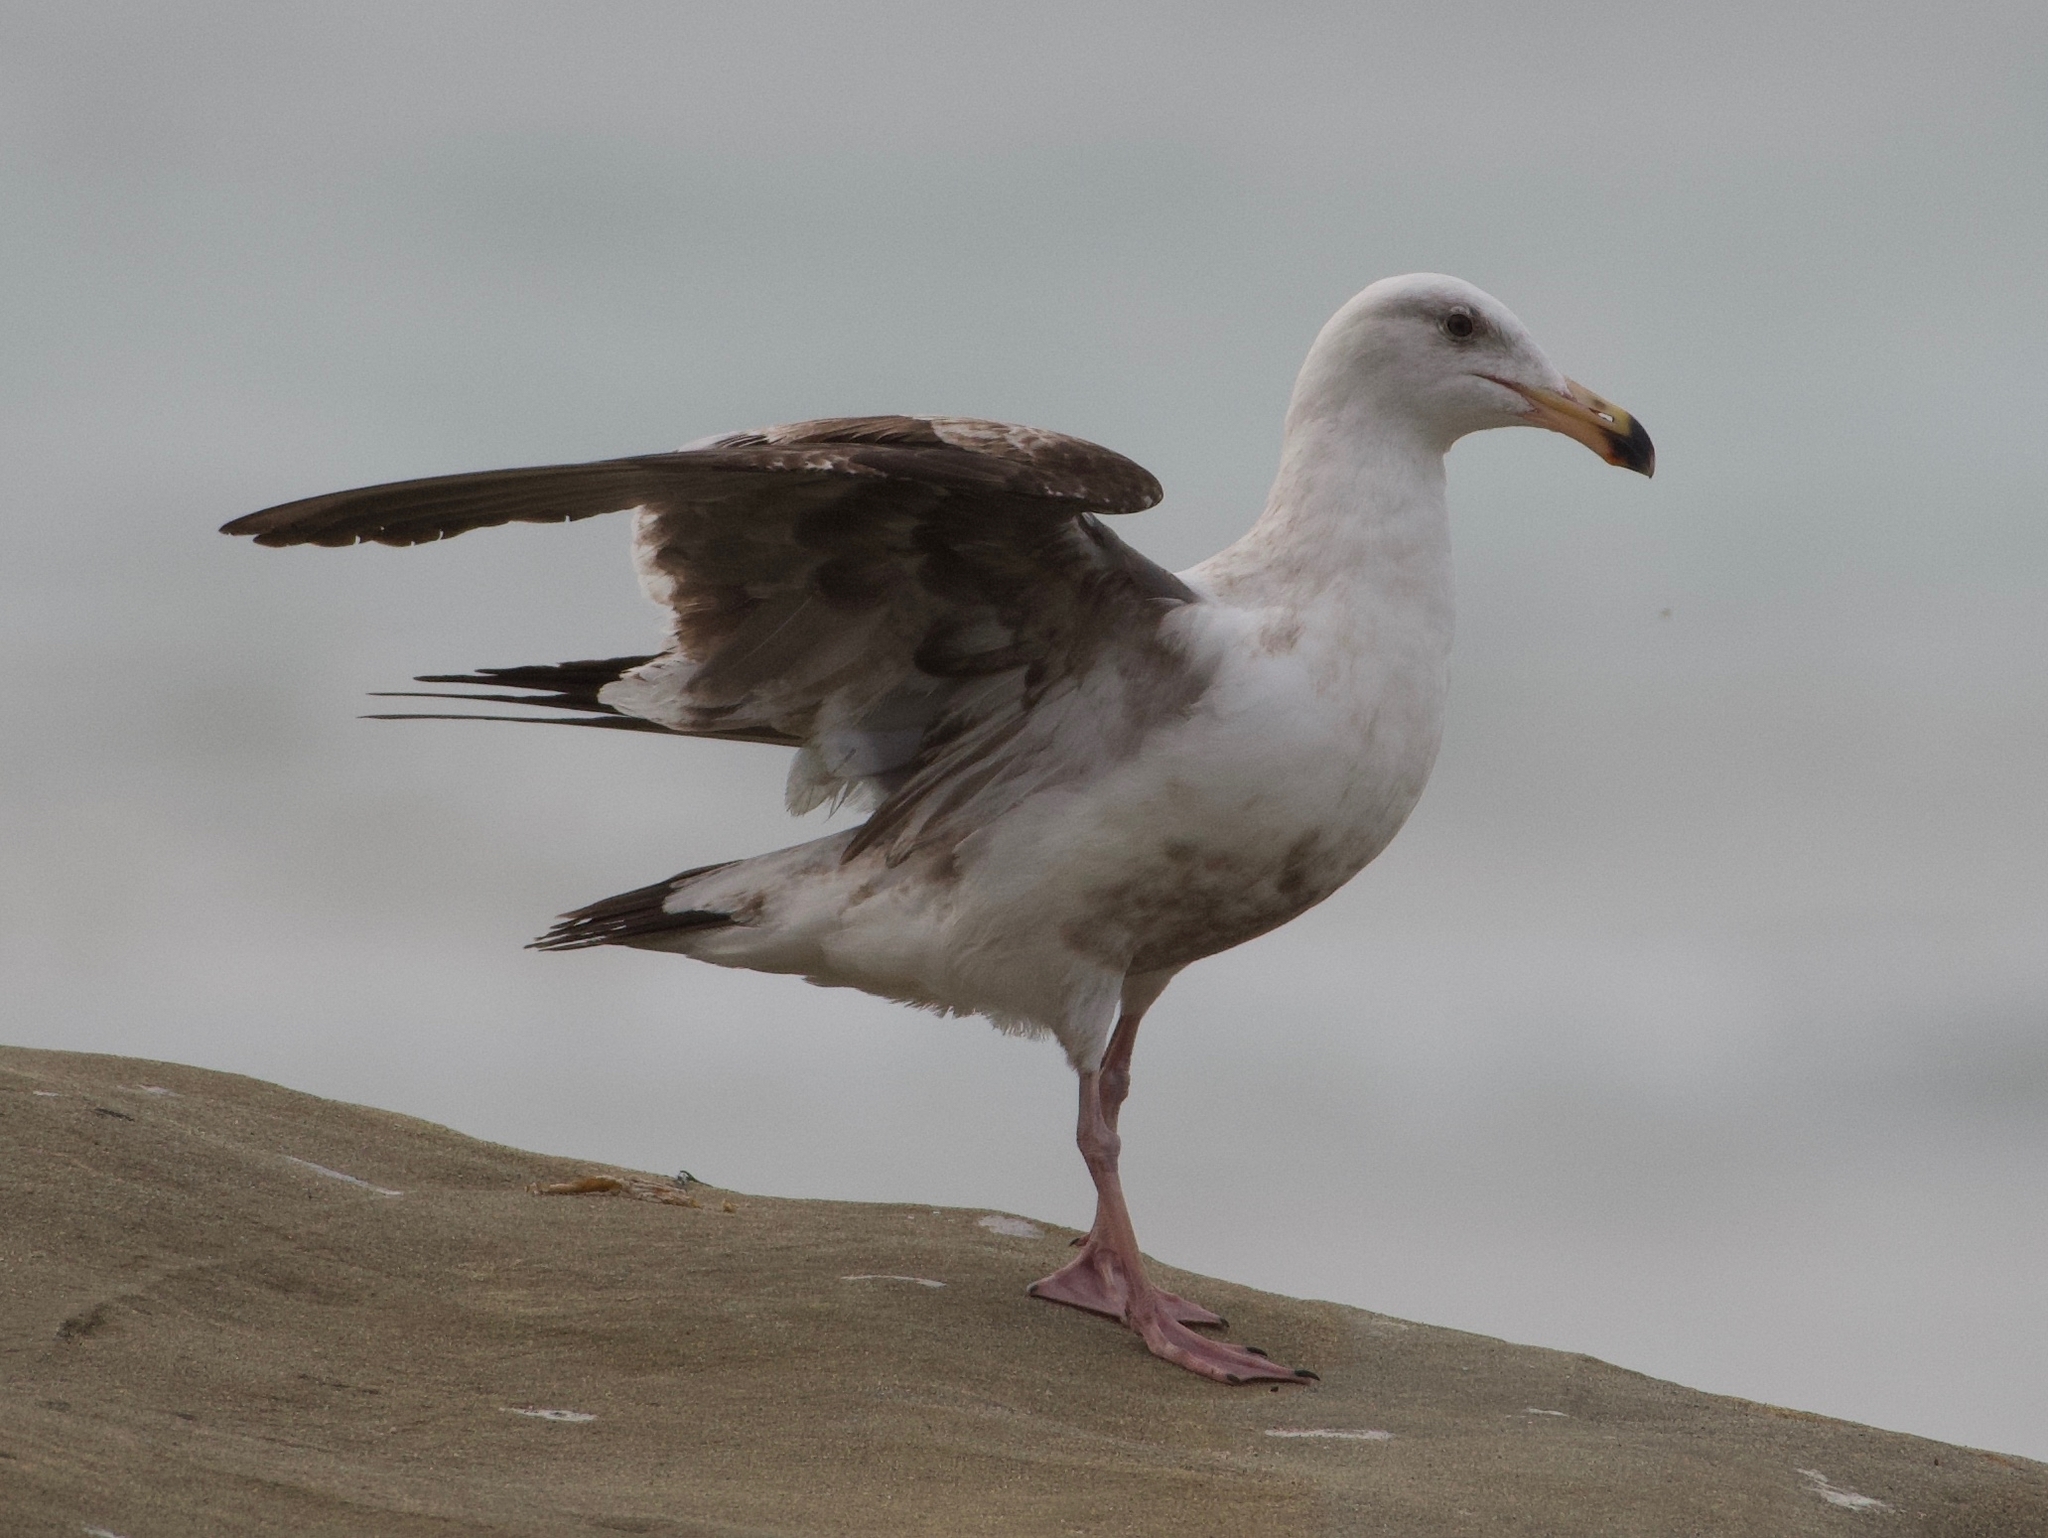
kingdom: Animalia
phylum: Chordata
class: Aves
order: Charadriiformes
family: Laridae
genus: Larus
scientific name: Larus occidentalis
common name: Western gull
